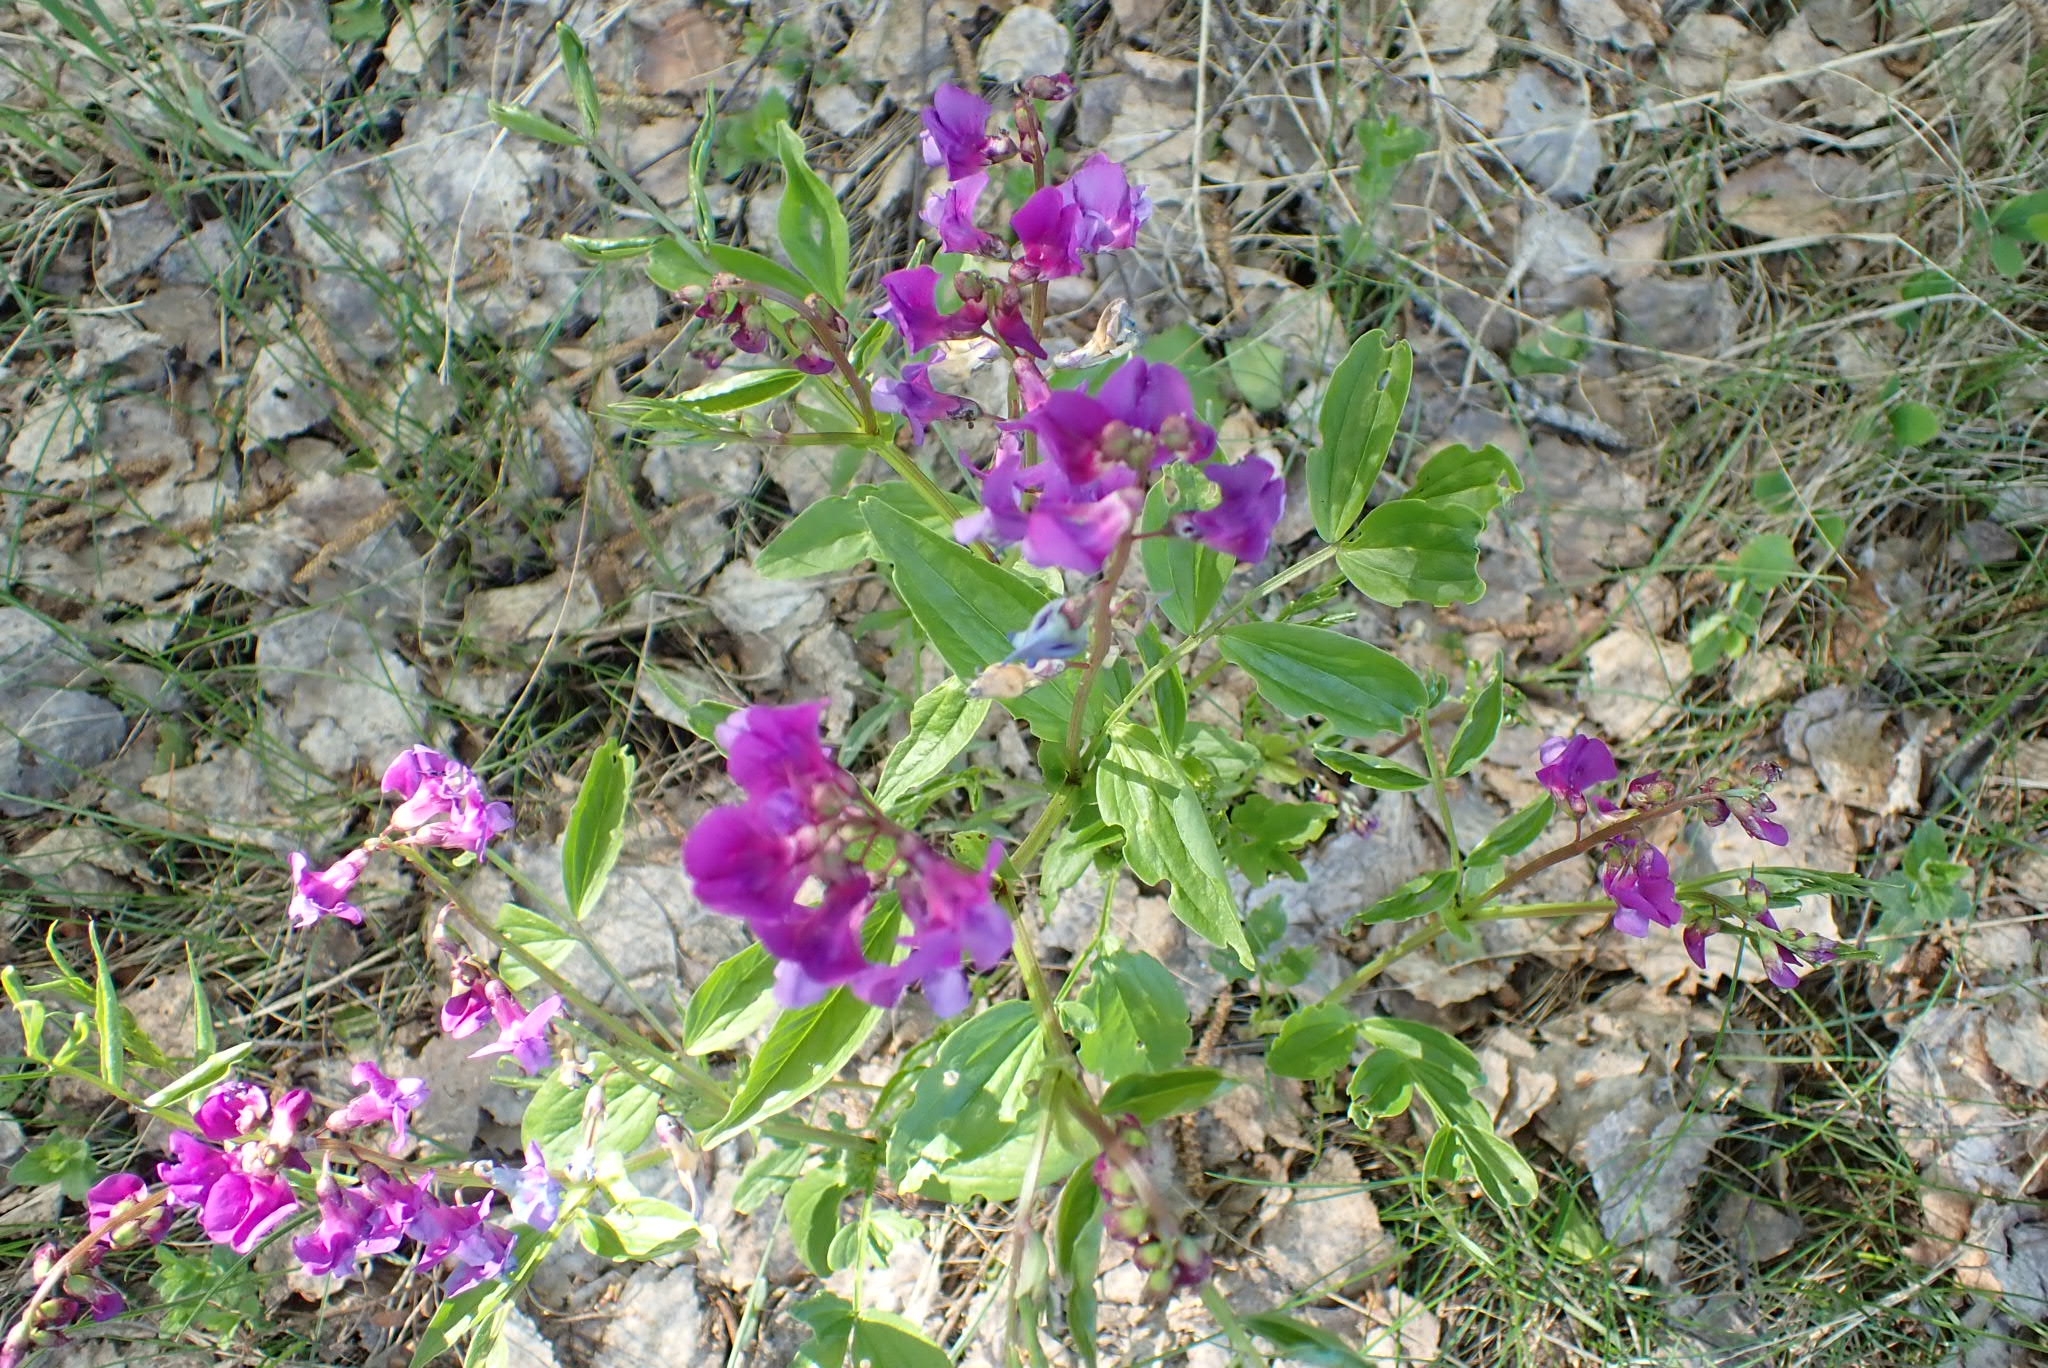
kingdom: Plantae
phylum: Tracheophyta
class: Magnoliopsida
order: Fabales
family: Fabaceae
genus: Lathyrus
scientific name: Lathyrus vernus
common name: Spring pea
